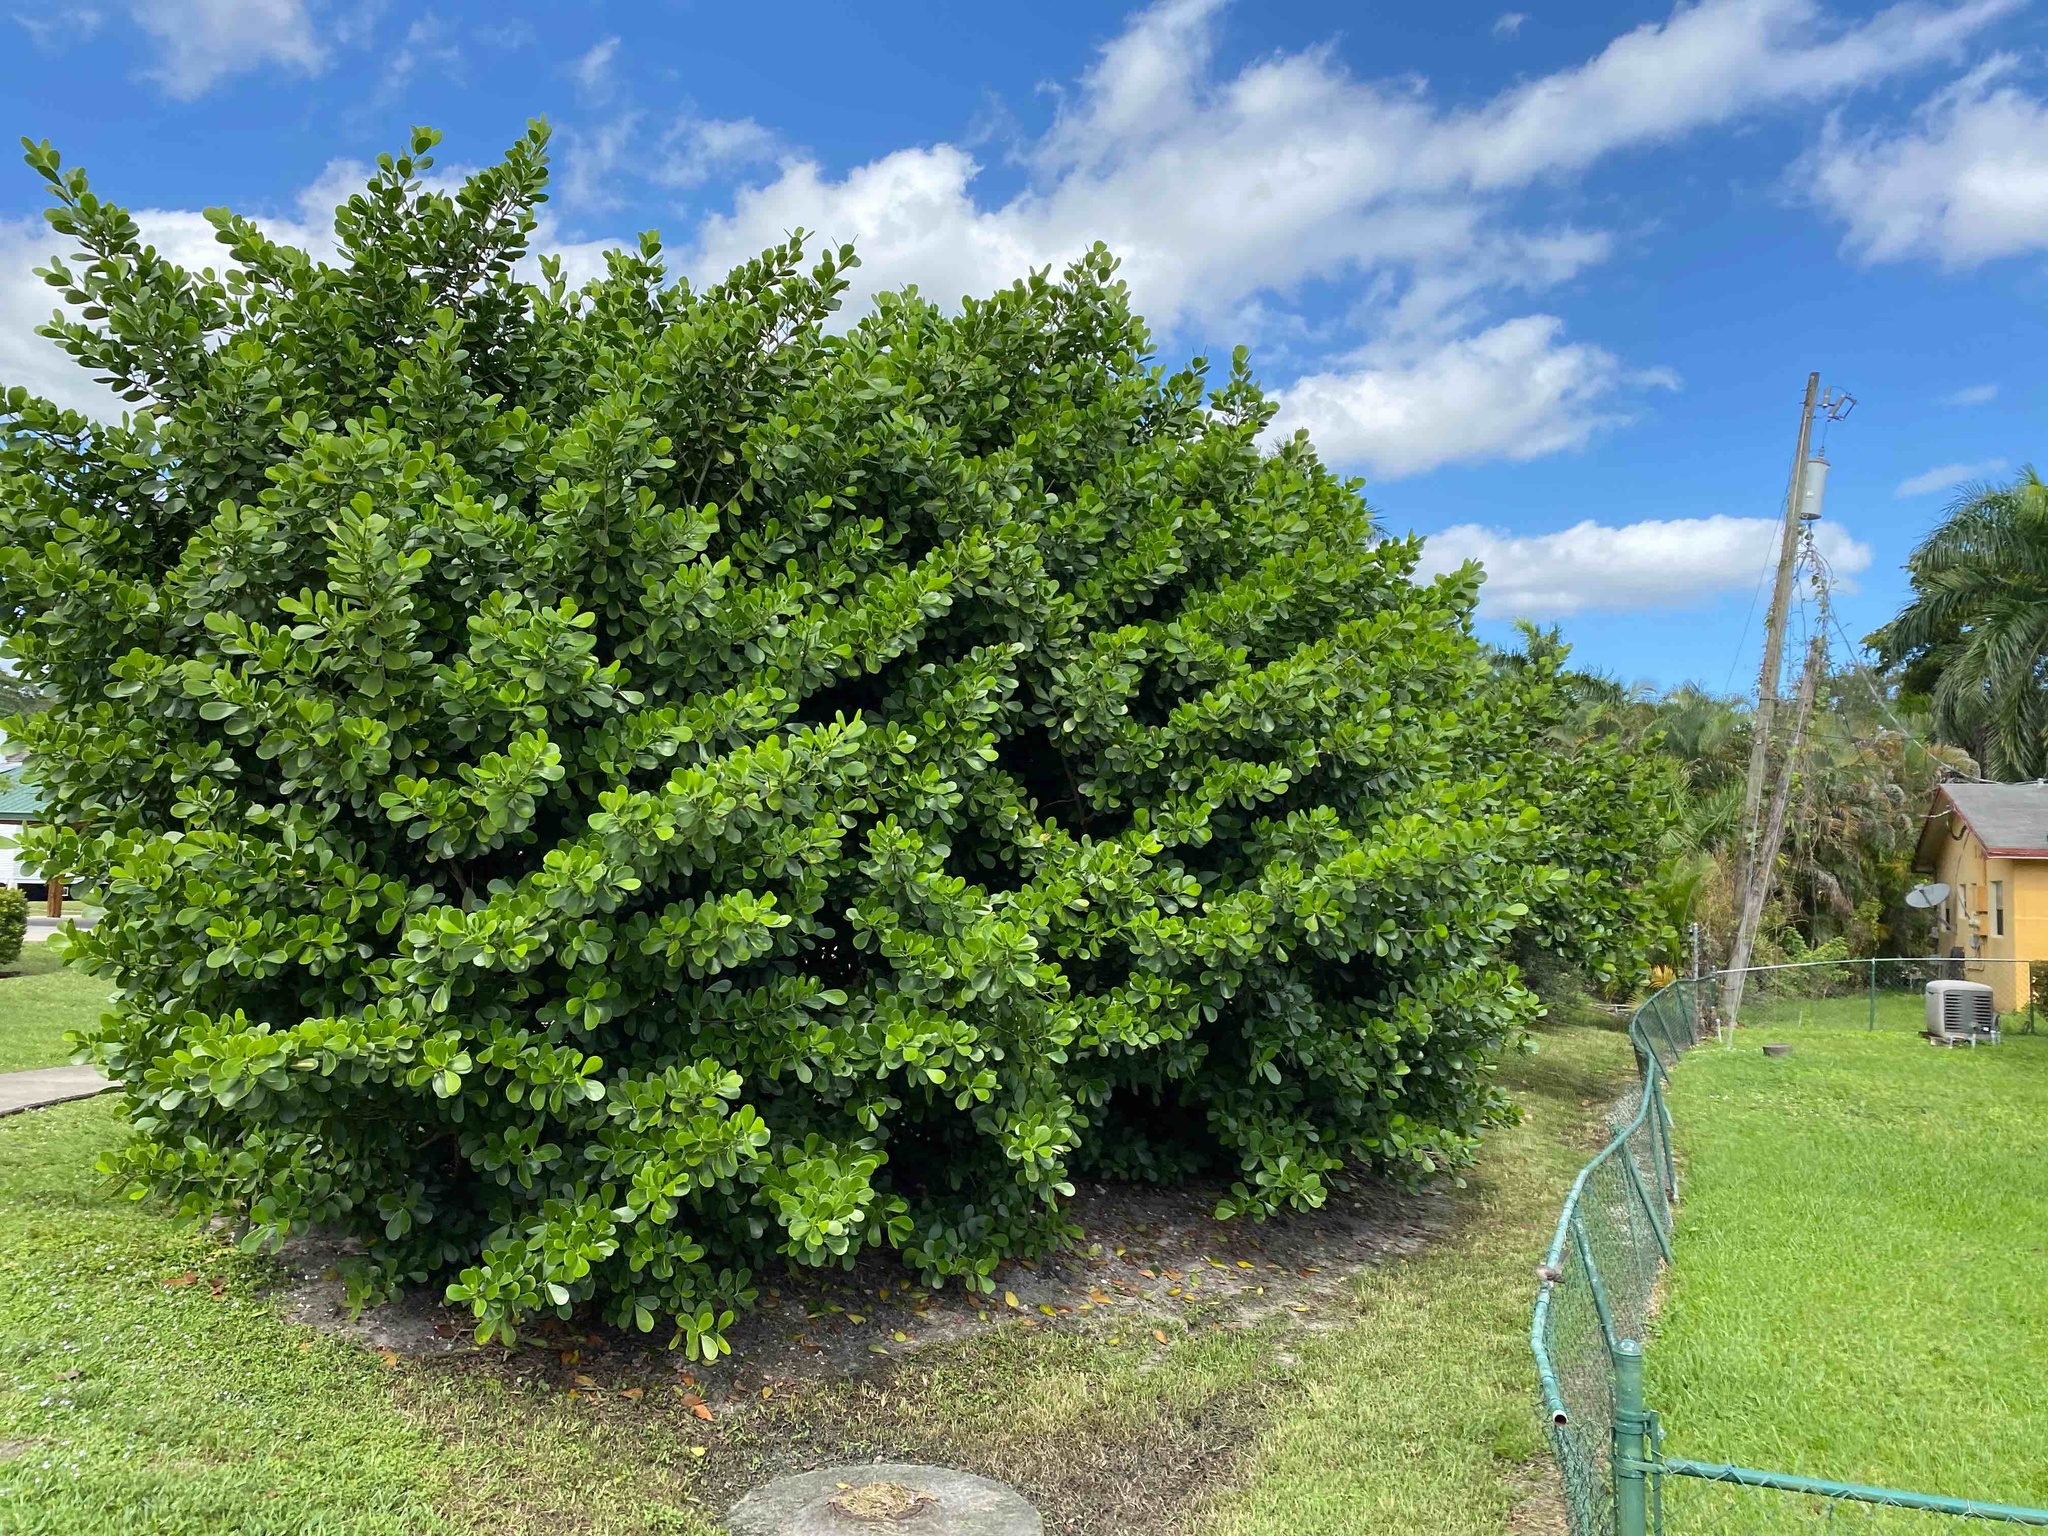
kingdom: Plantae
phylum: Tracheophyta
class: Magnoliopsida
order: Malpighiales
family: Clusiaceae
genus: Clusia
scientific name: Clusia rosea
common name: Scotch attorney
